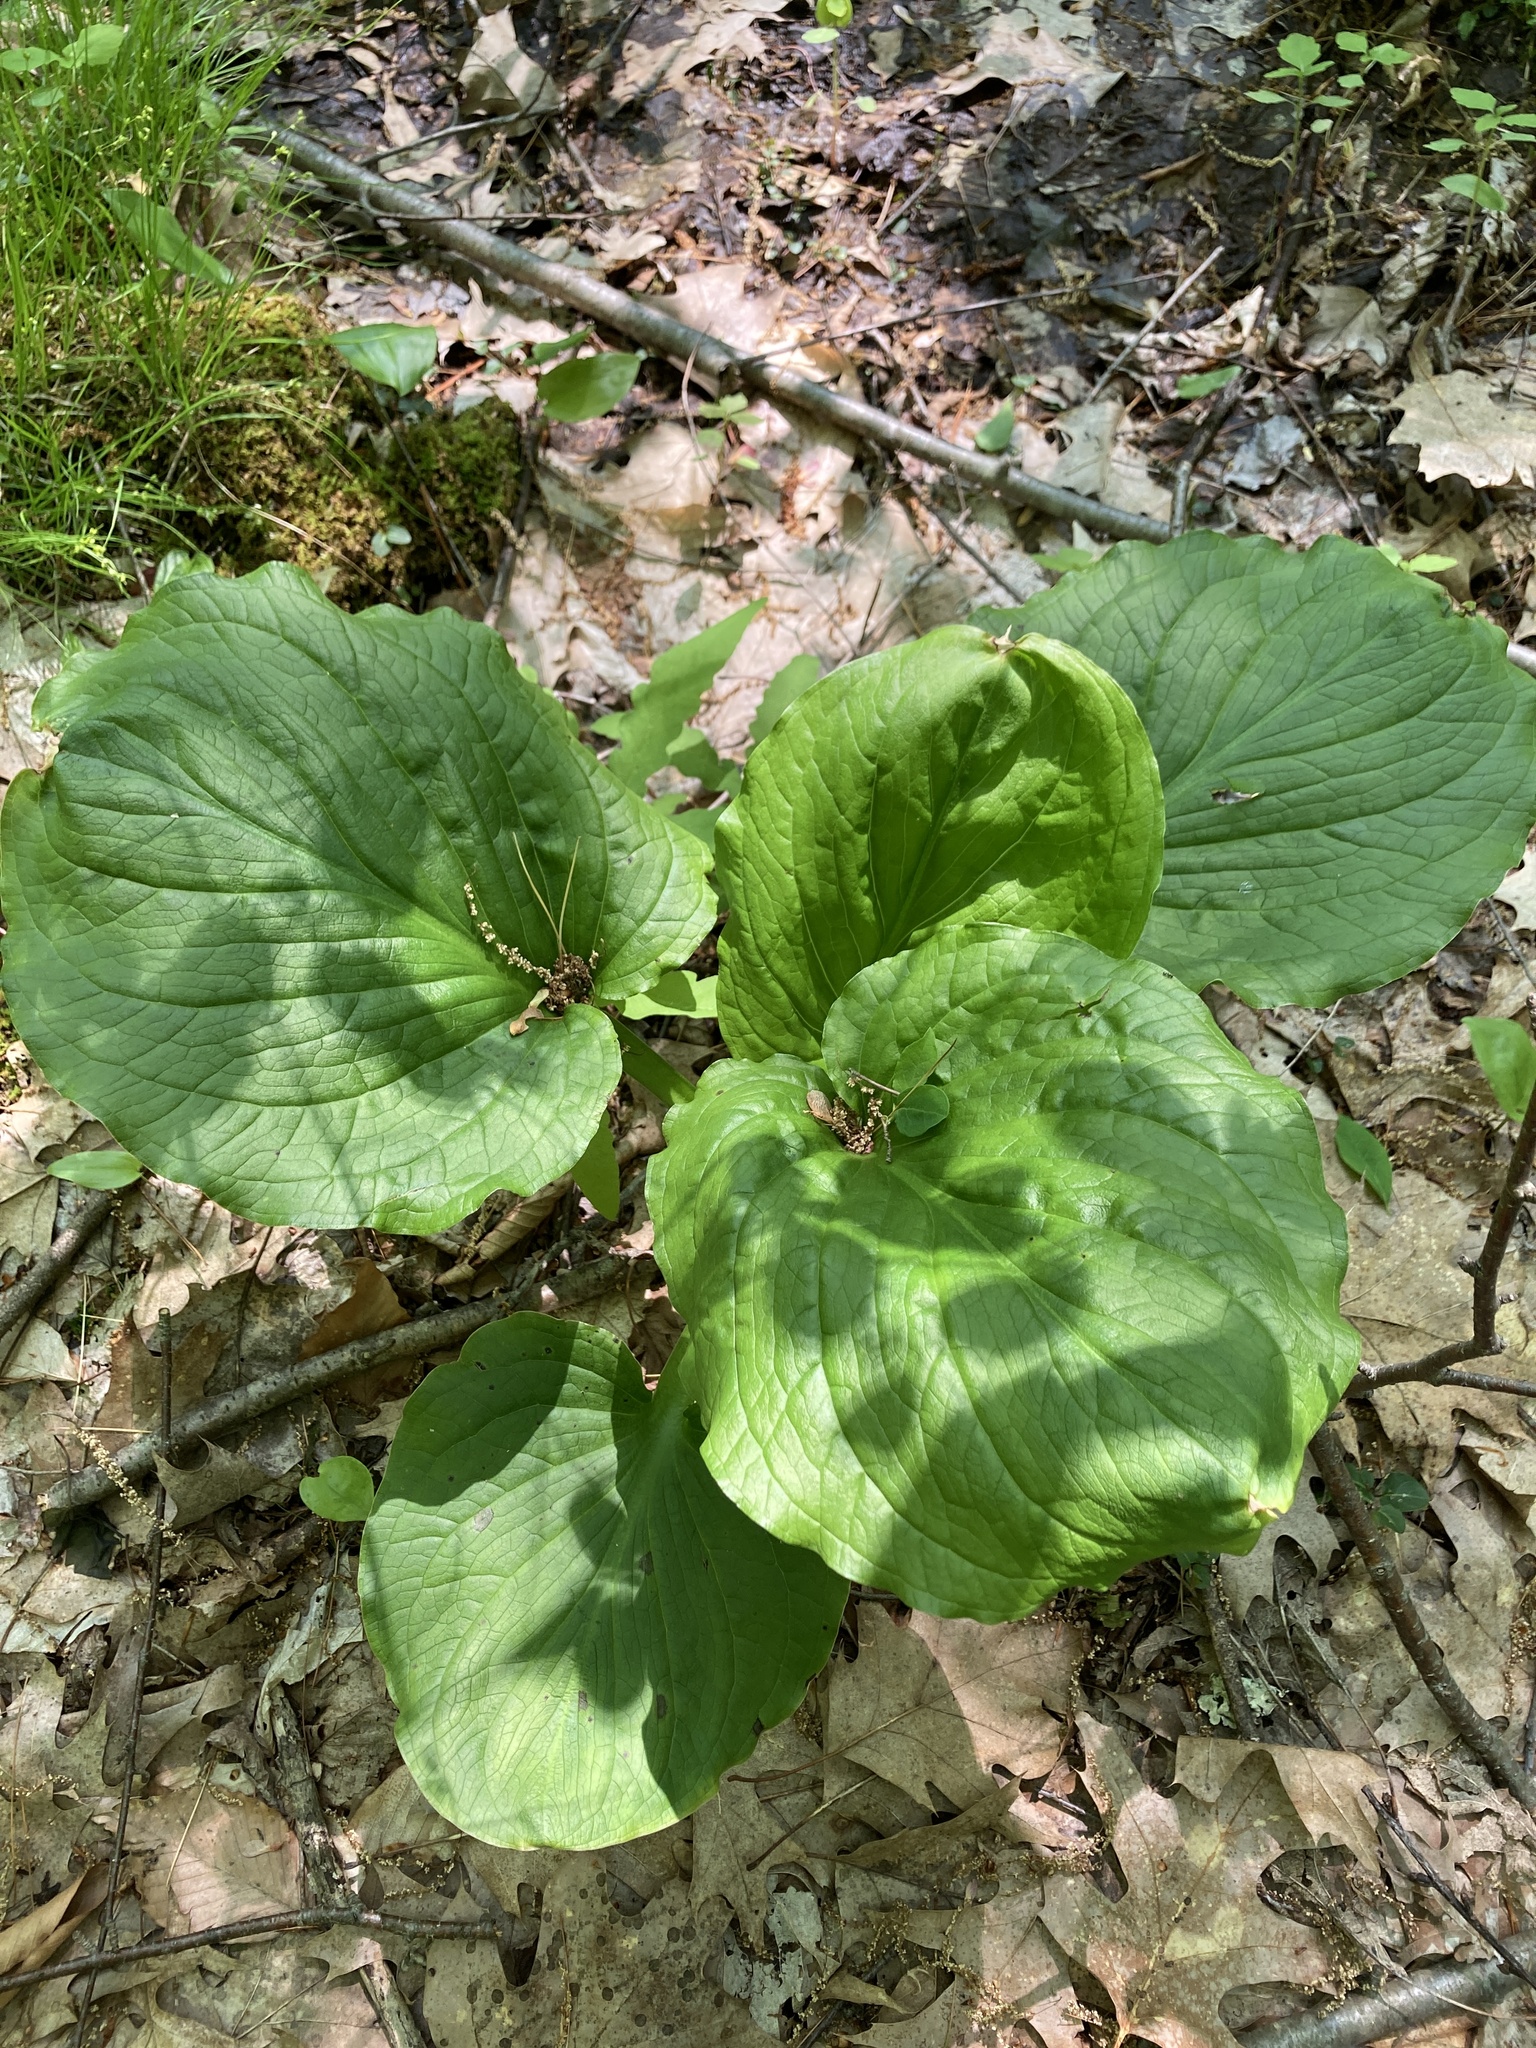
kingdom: Plantae
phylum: Tracheophyta
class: Liliopsida
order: Alismatales
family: Araceae
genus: Symplocarpus
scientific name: Symplocarpus foetidus
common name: Eastern skunk cabbage
